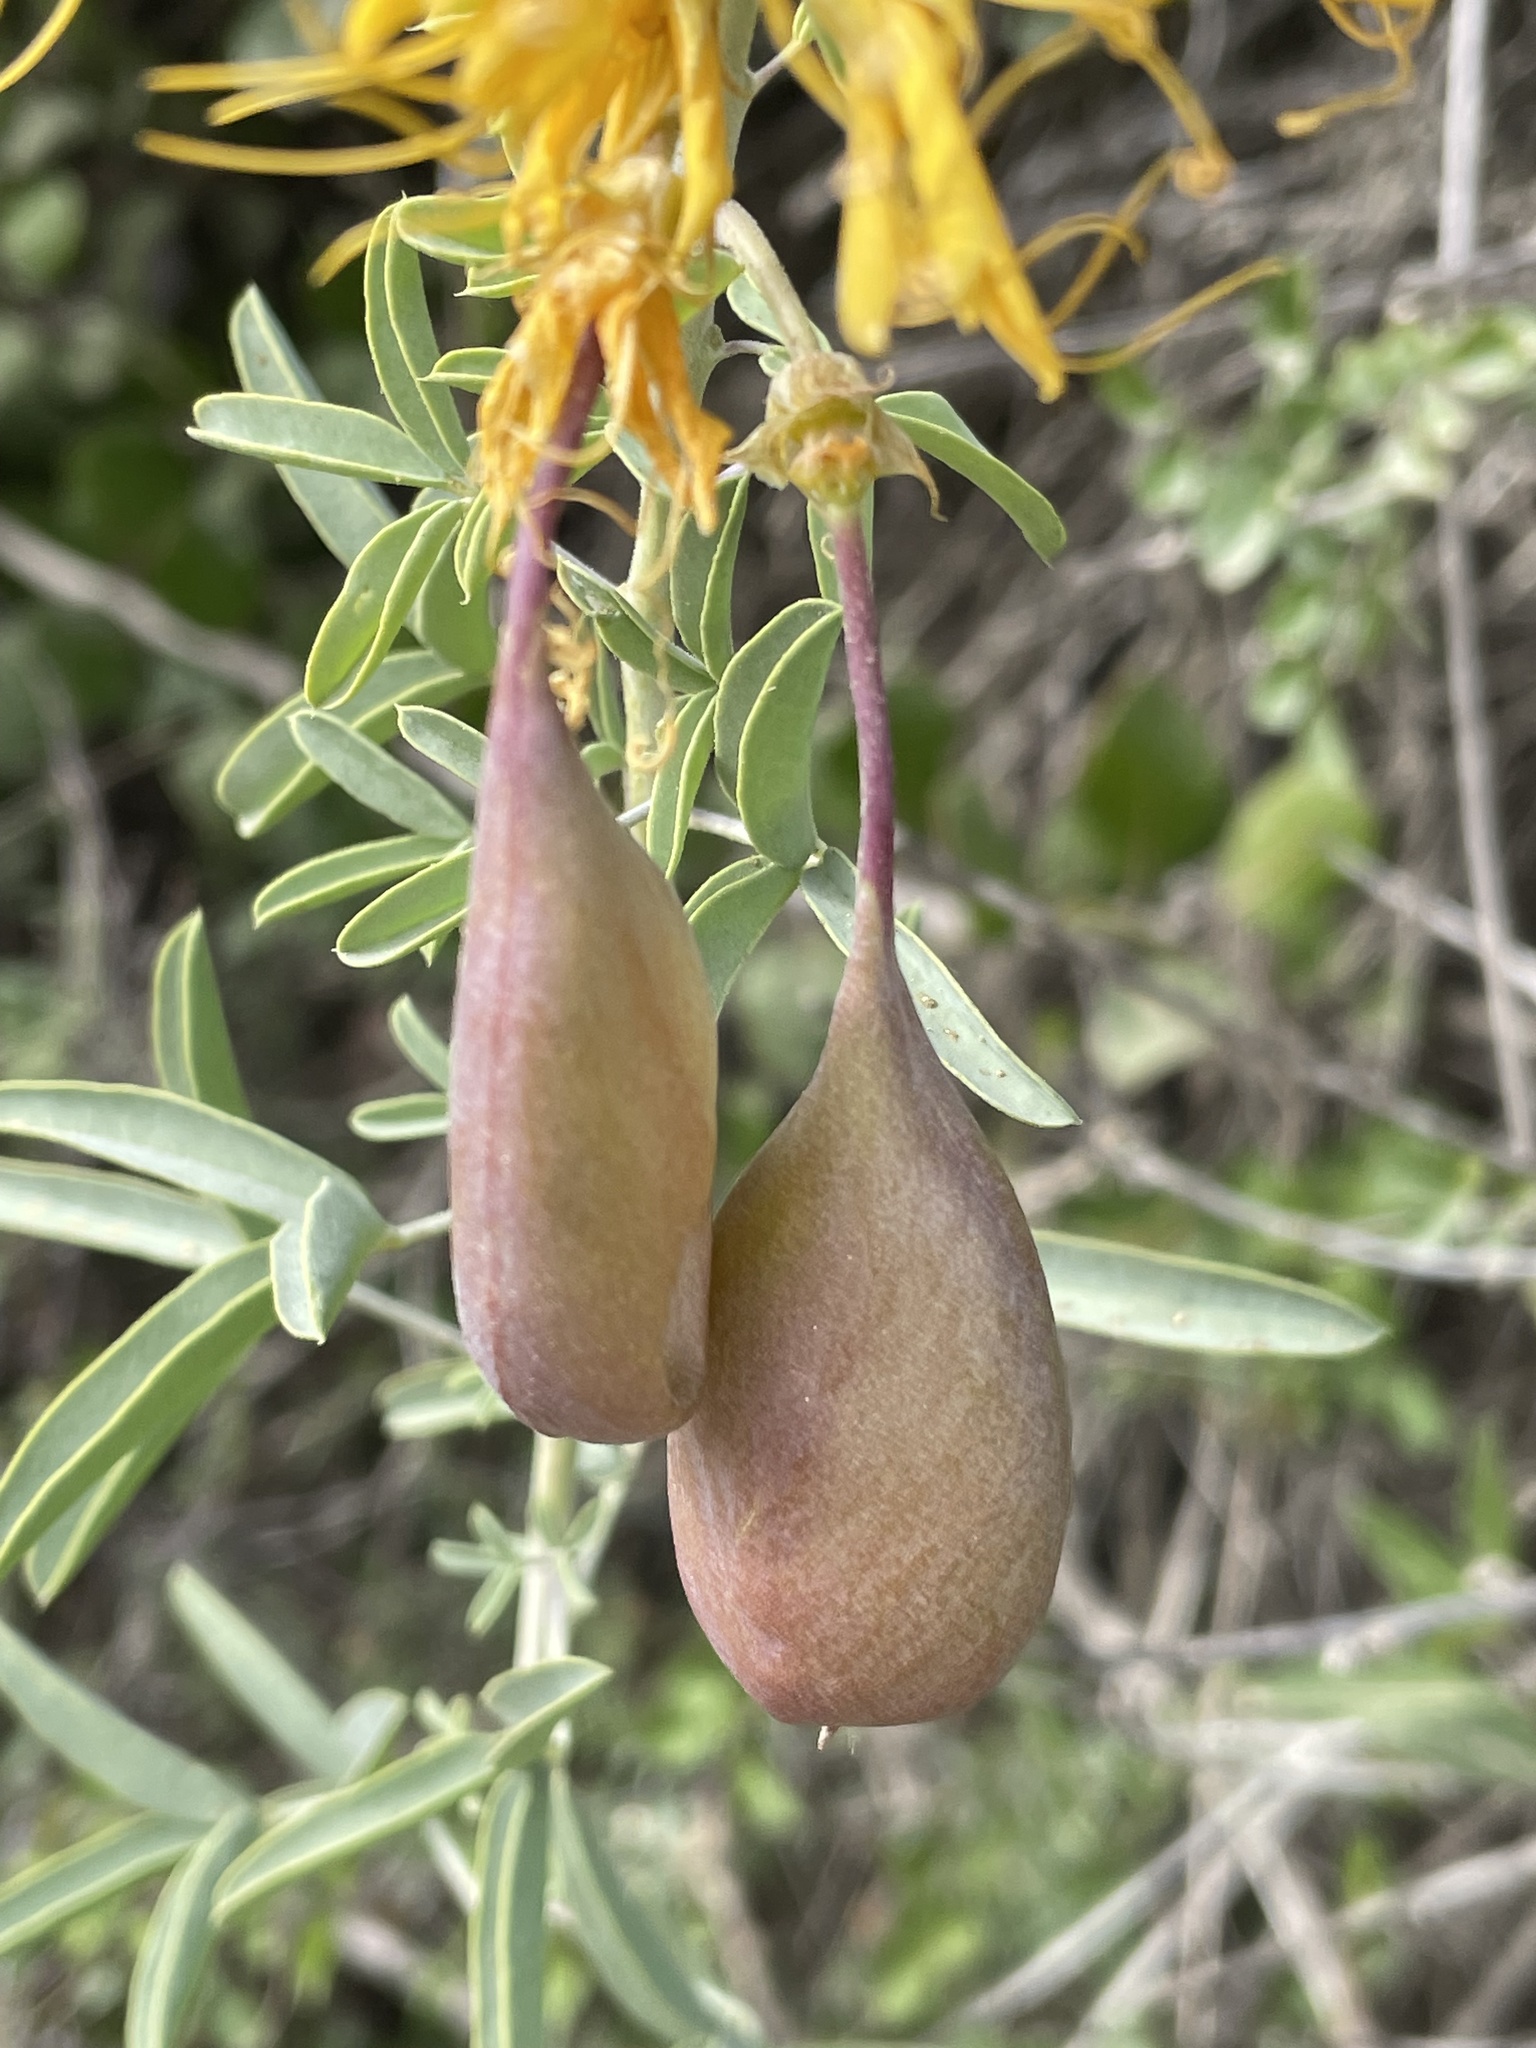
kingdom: Plantae
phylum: Tracheophyta
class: Magnoliopsida
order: Brassicales
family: Cleomaceae
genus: Cleomella
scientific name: Cleomella arborea
